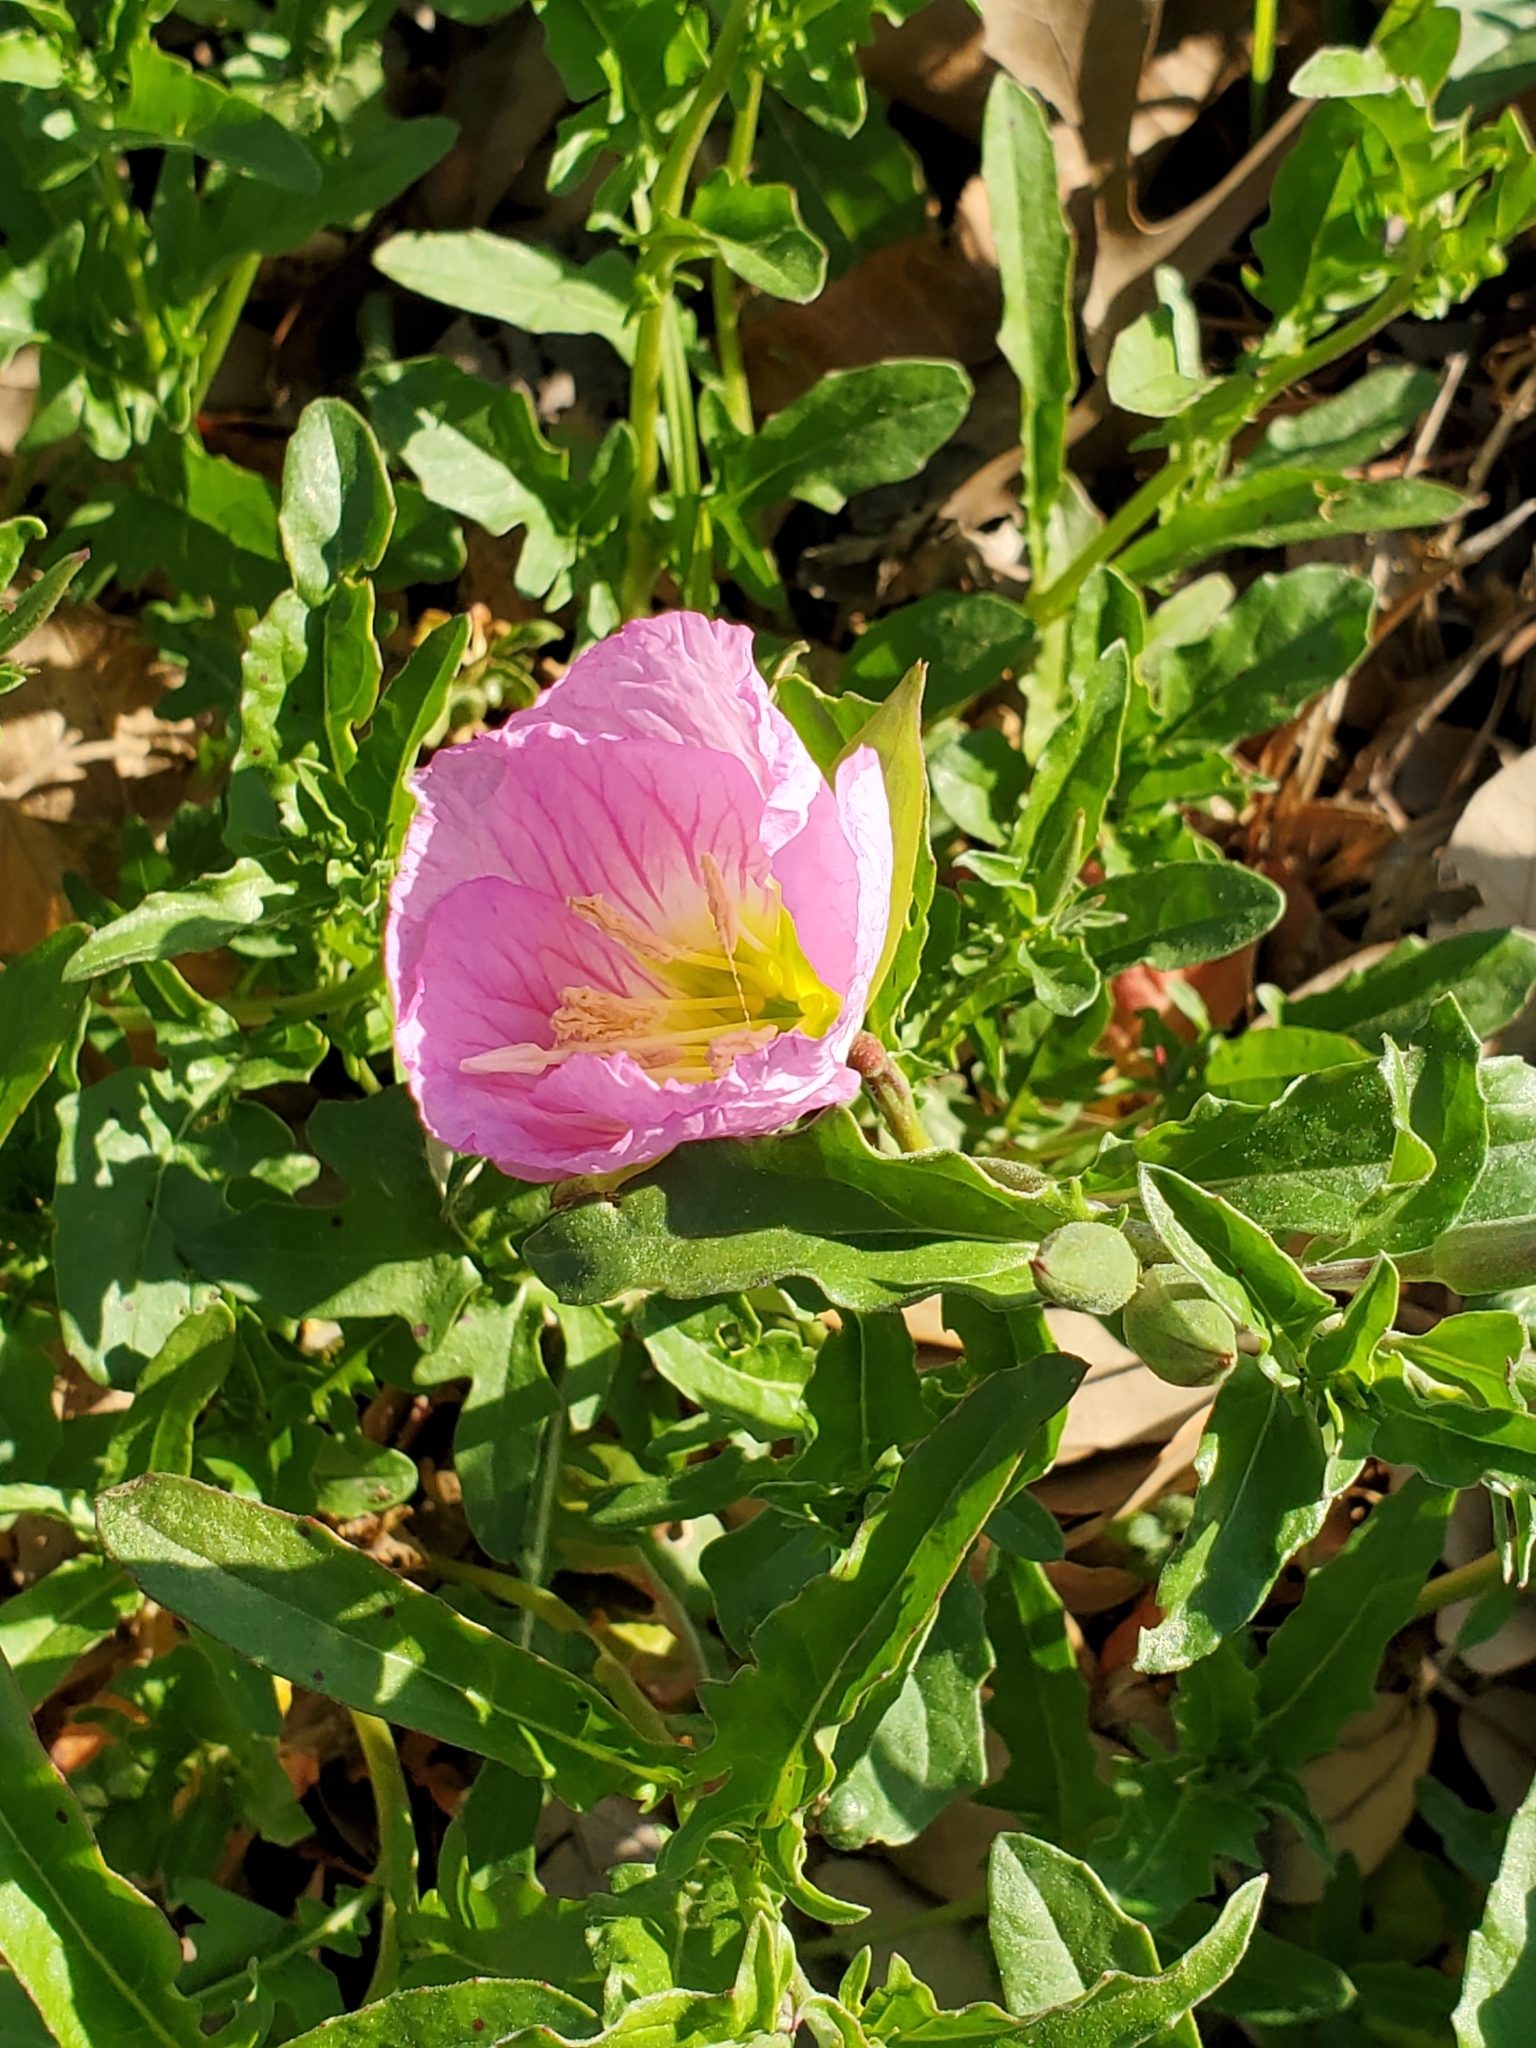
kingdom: Plantae
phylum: Tracheophyta
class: Magnoliopsida
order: Myrtales
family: Onagraceae
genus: Oenothera
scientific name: Oenothera speciosa
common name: White evening-primrose
